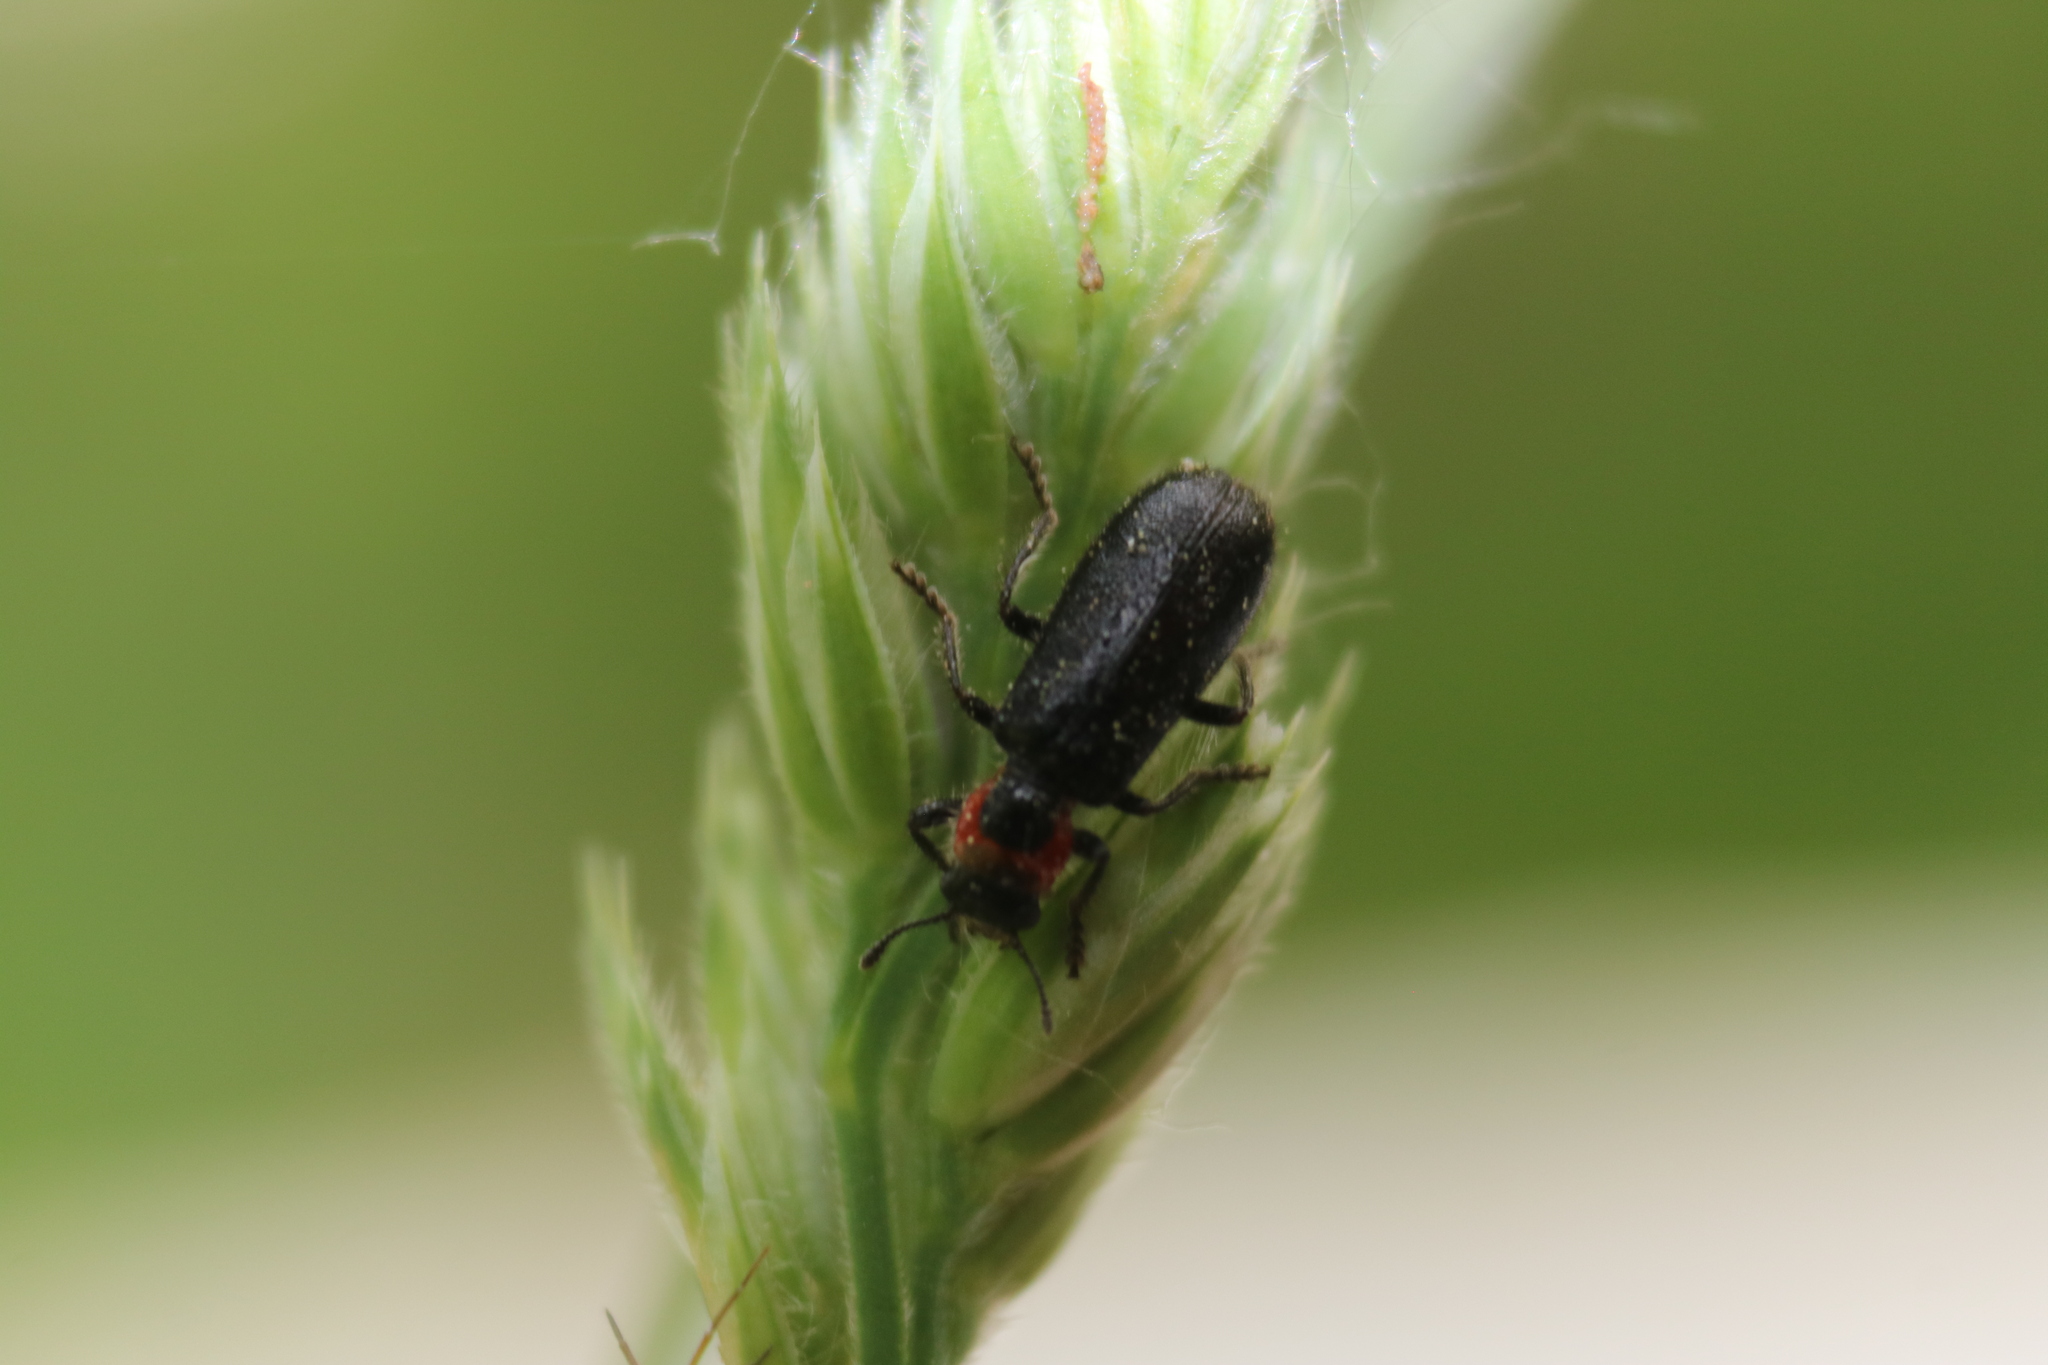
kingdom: Animalia
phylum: Arthropoda
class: Insecta
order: Coleoptera
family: Cleridae
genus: Placopterus
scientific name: Placopterus thoracicus
